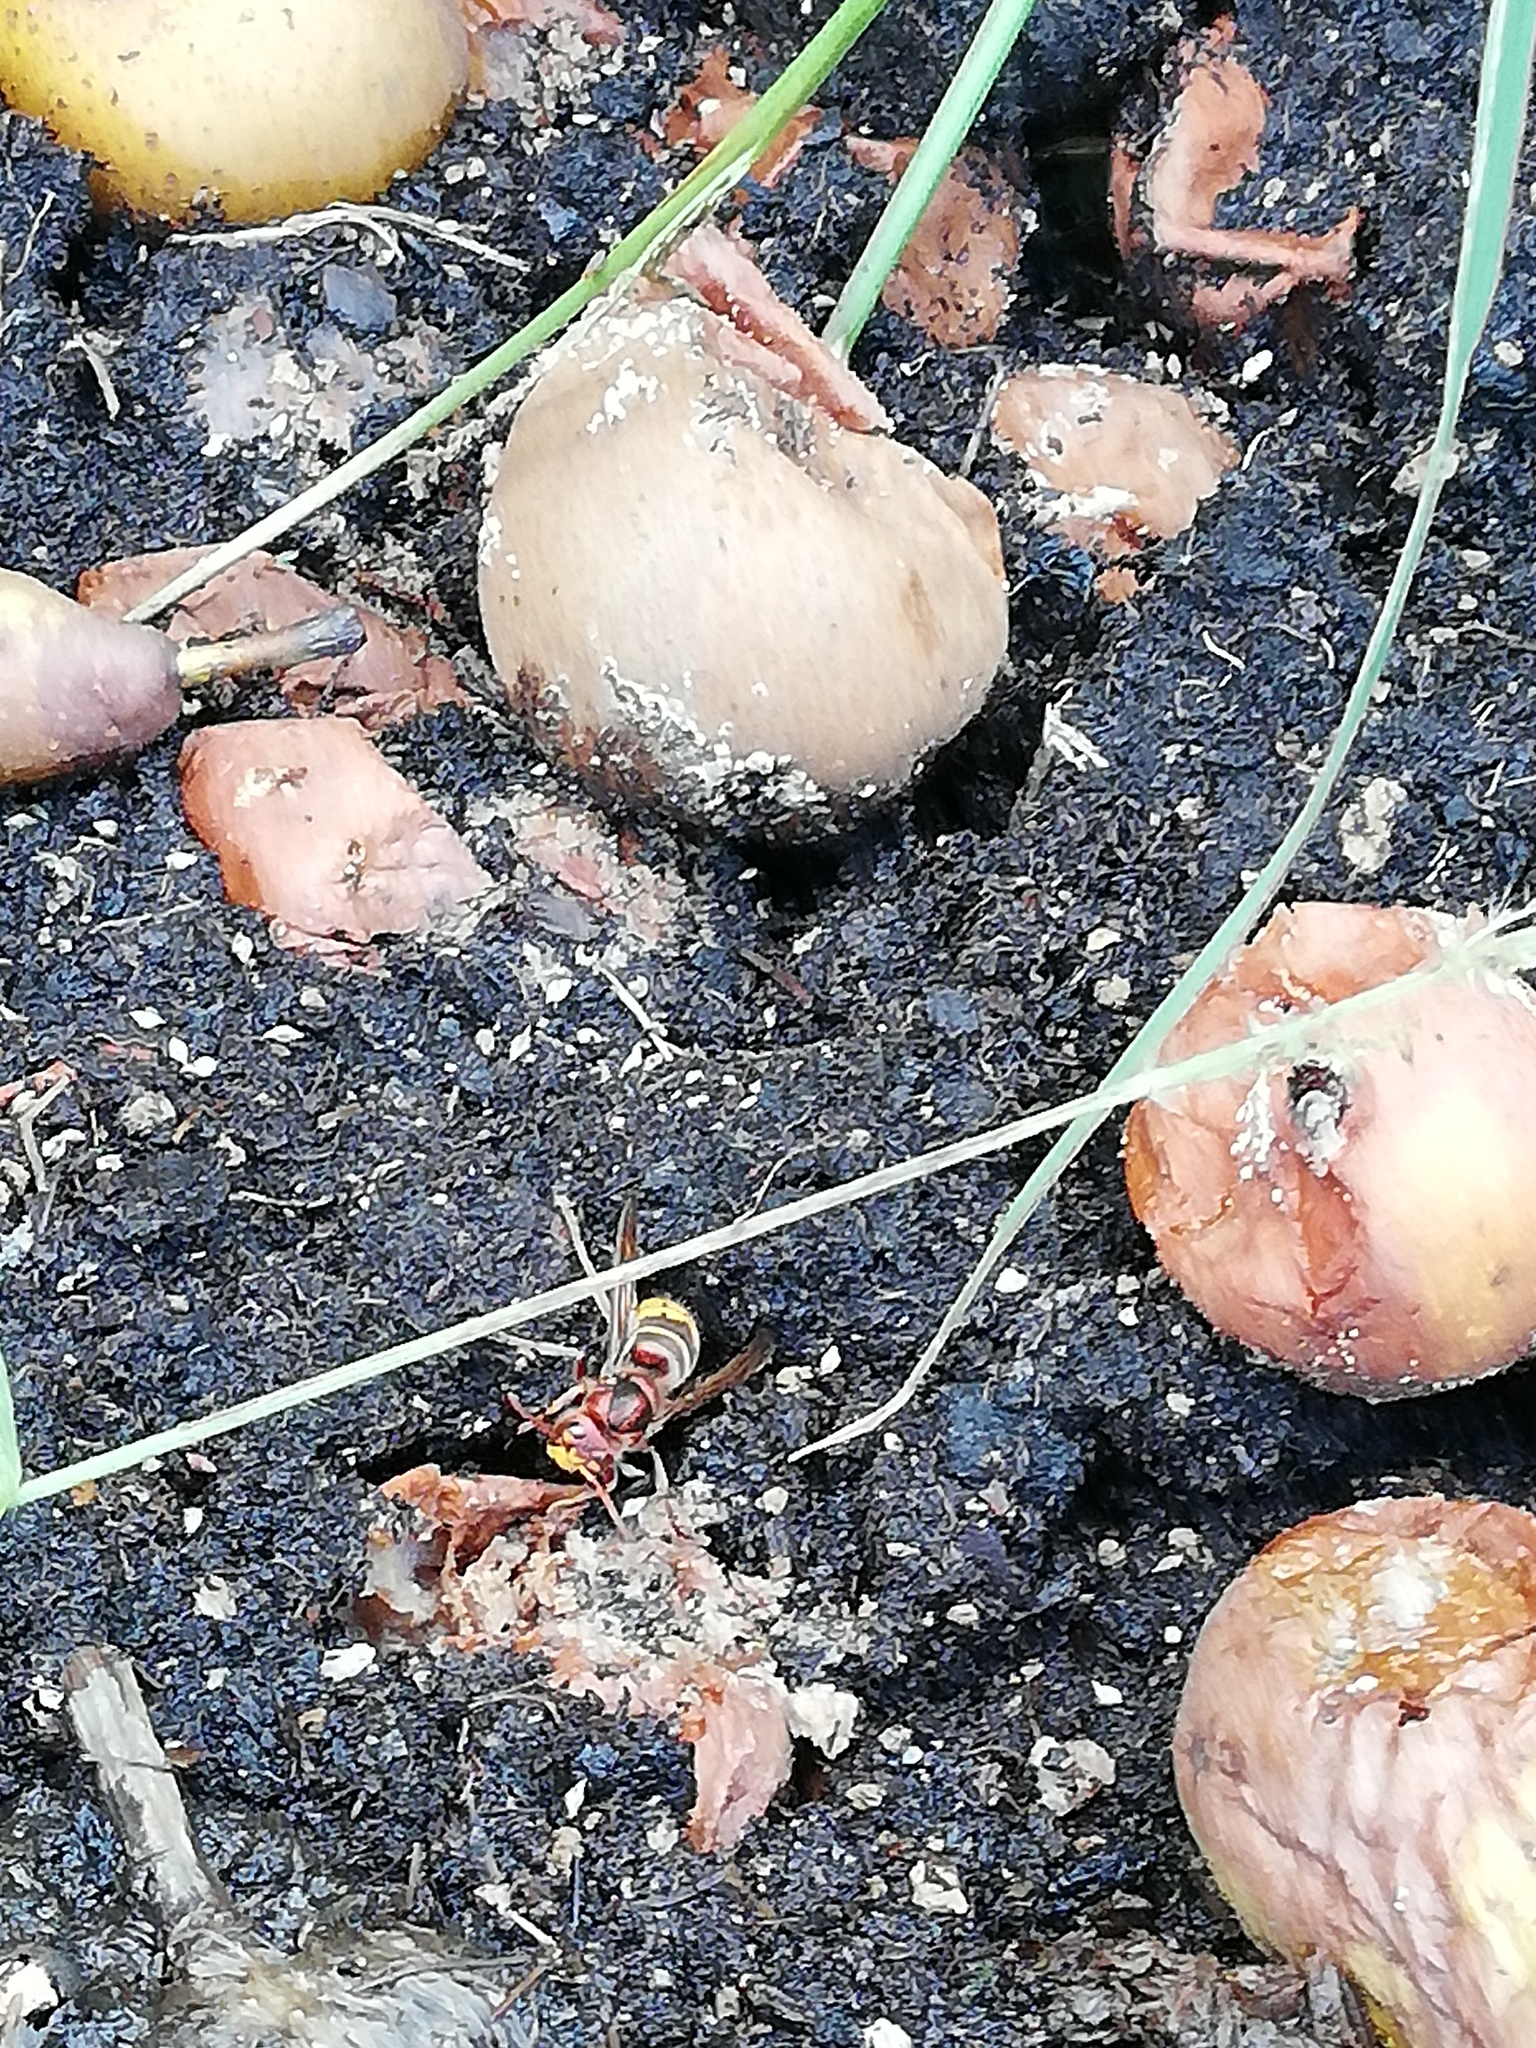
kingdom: Animalia
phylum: Arthropoda
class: Insecta
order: Hymenoptera
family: Vespidae
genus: Vespa
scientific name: Vespa crabro
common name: Hornet
